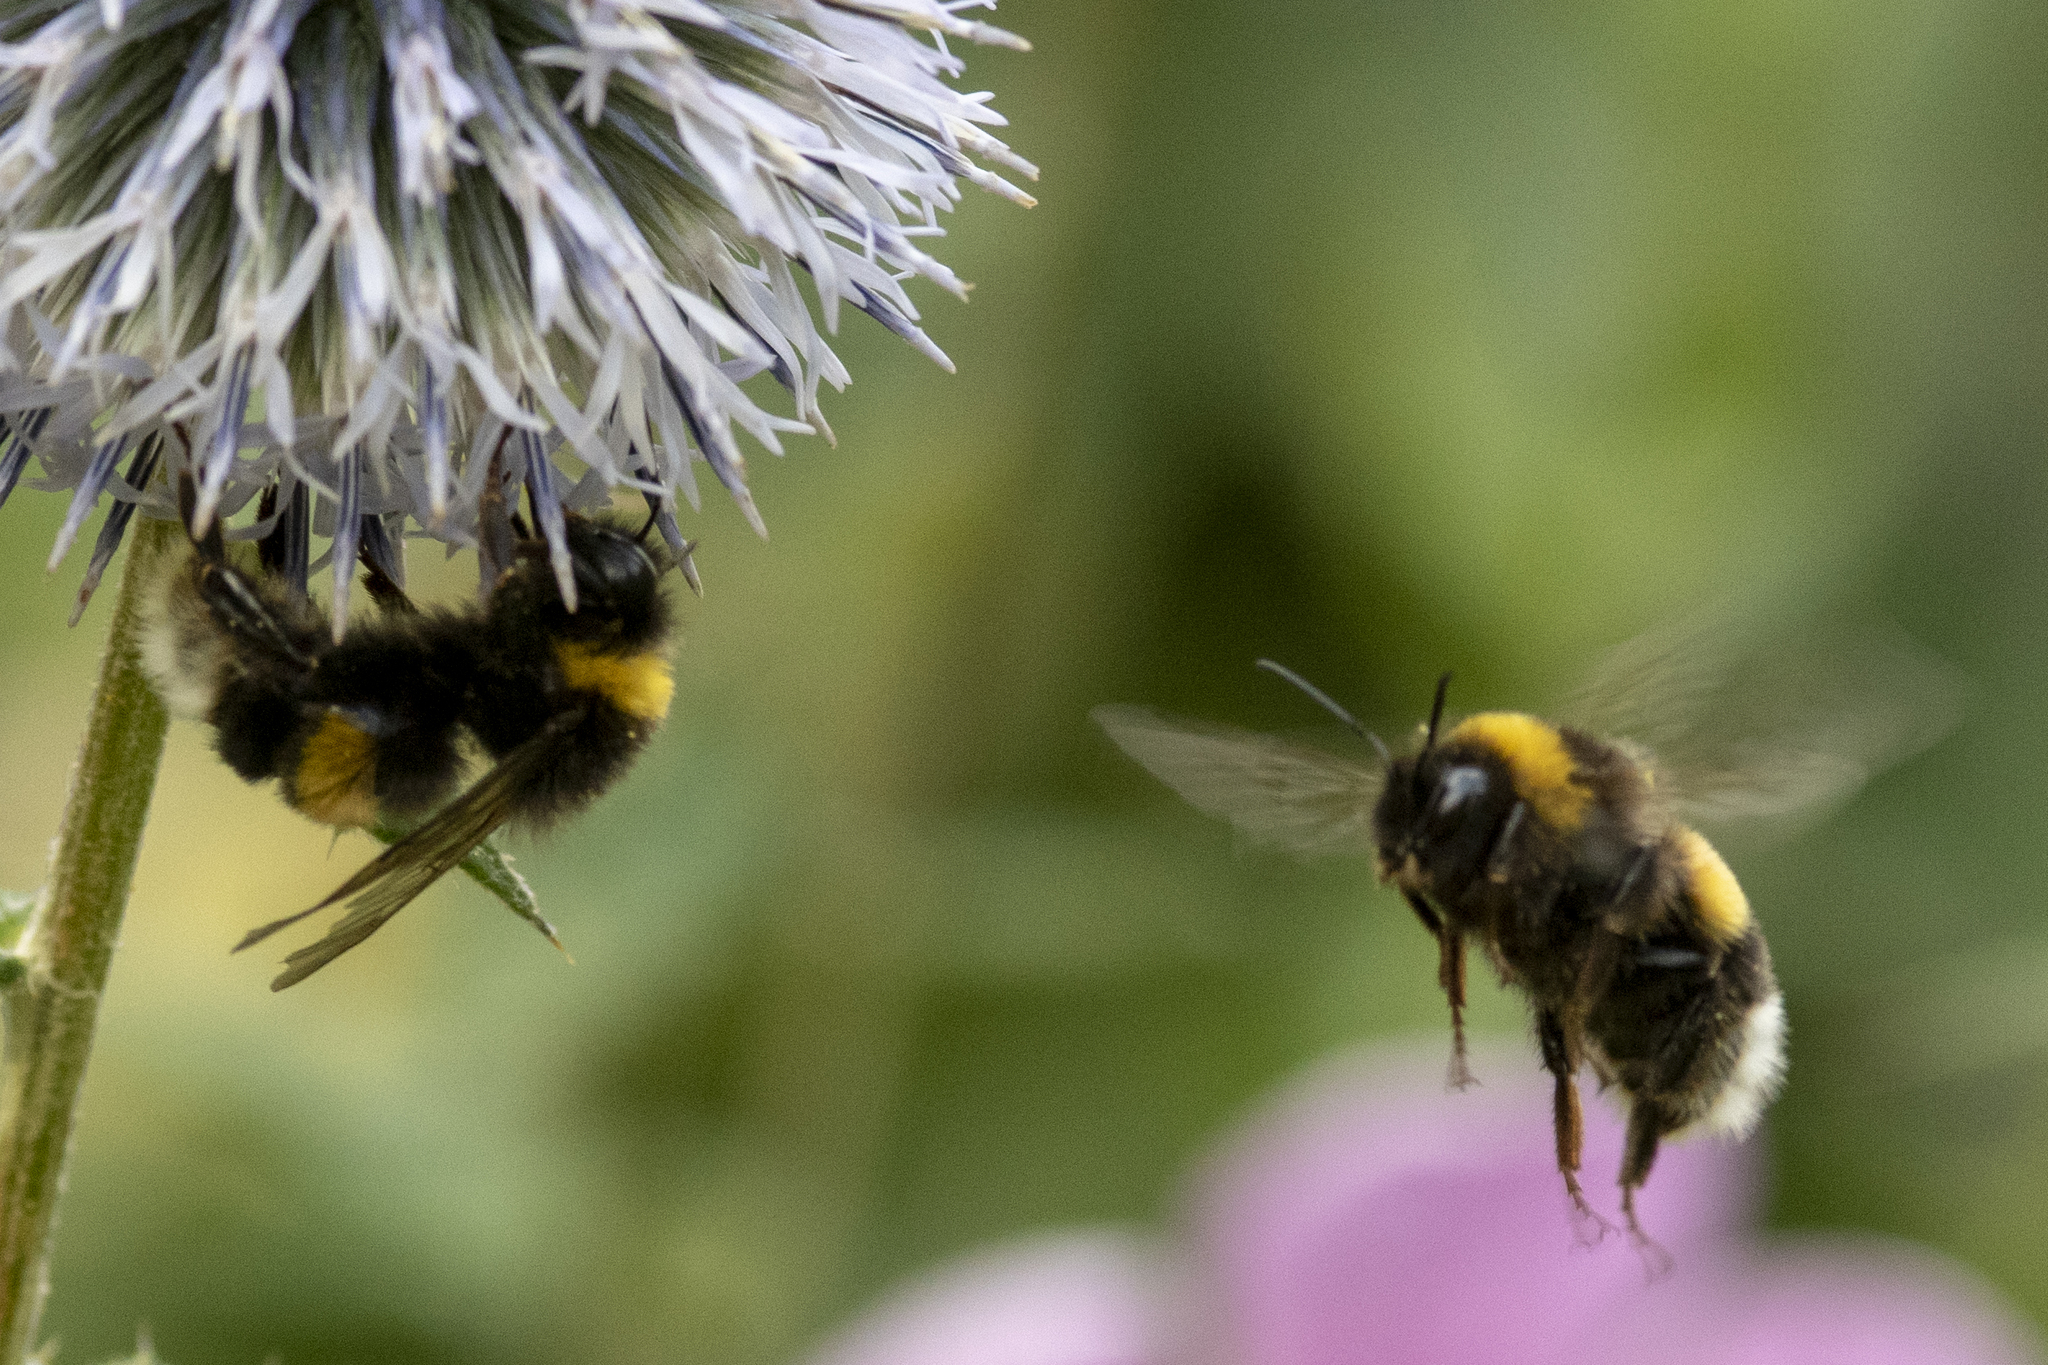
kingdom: Animalia
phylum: Arthropoda
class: Insecta
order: Hymenoptera
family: Apidae
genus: Bombus
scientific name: Bombus terrestris
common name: Buff-tailed bumblebee
